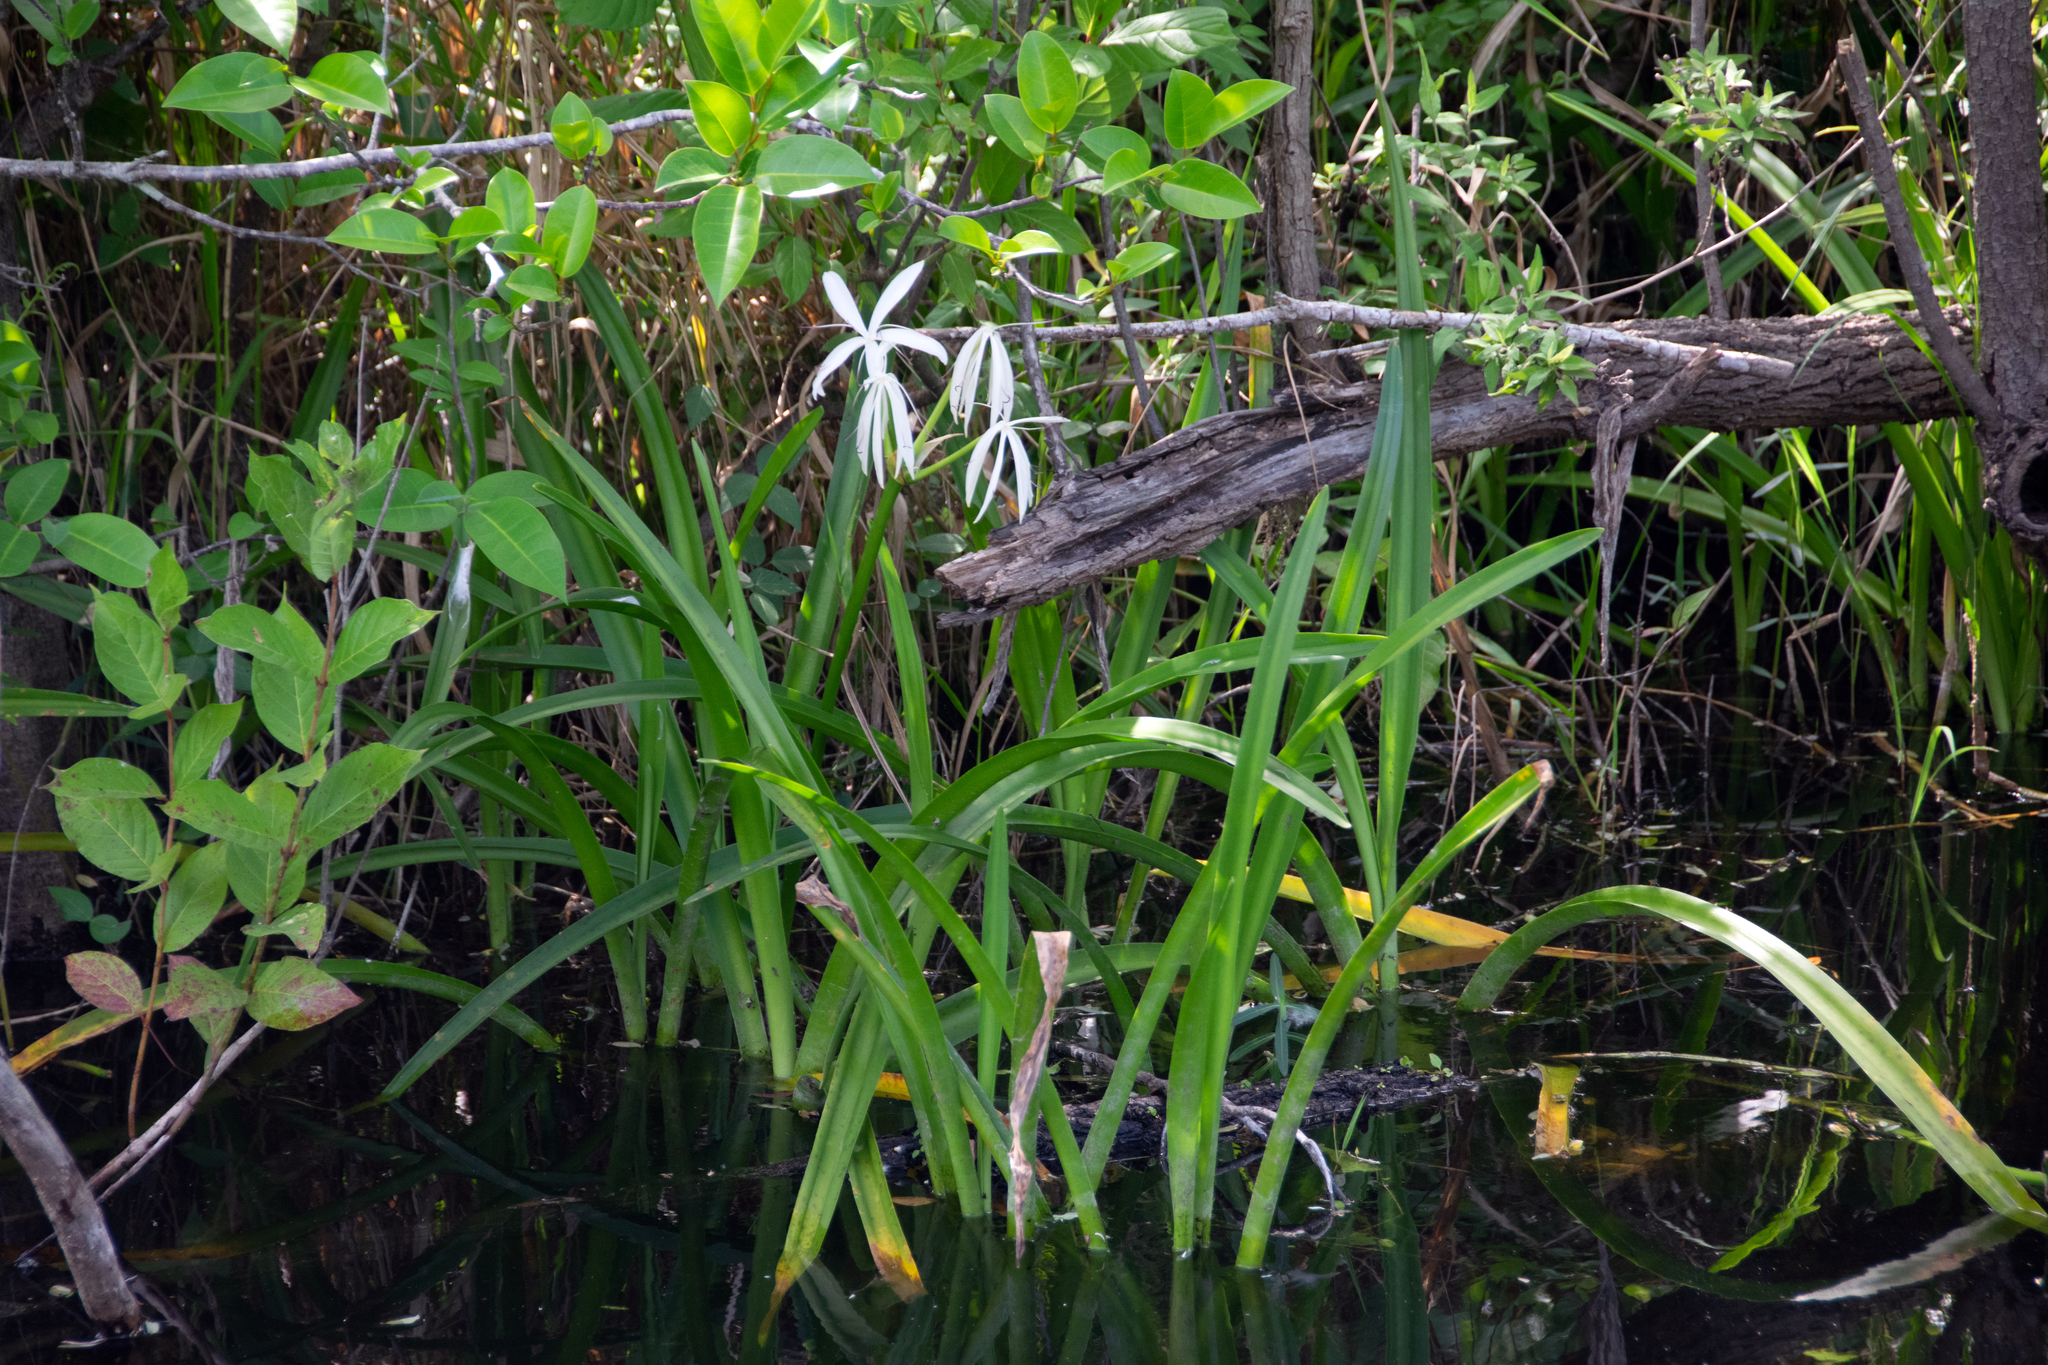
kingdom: Plantae
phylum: Tracheophyta
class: Liliopsida
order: Asparagales
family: Amaryllidaceae
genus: Crinum
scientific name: Crinum americanum
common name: Florida swamp-lily
